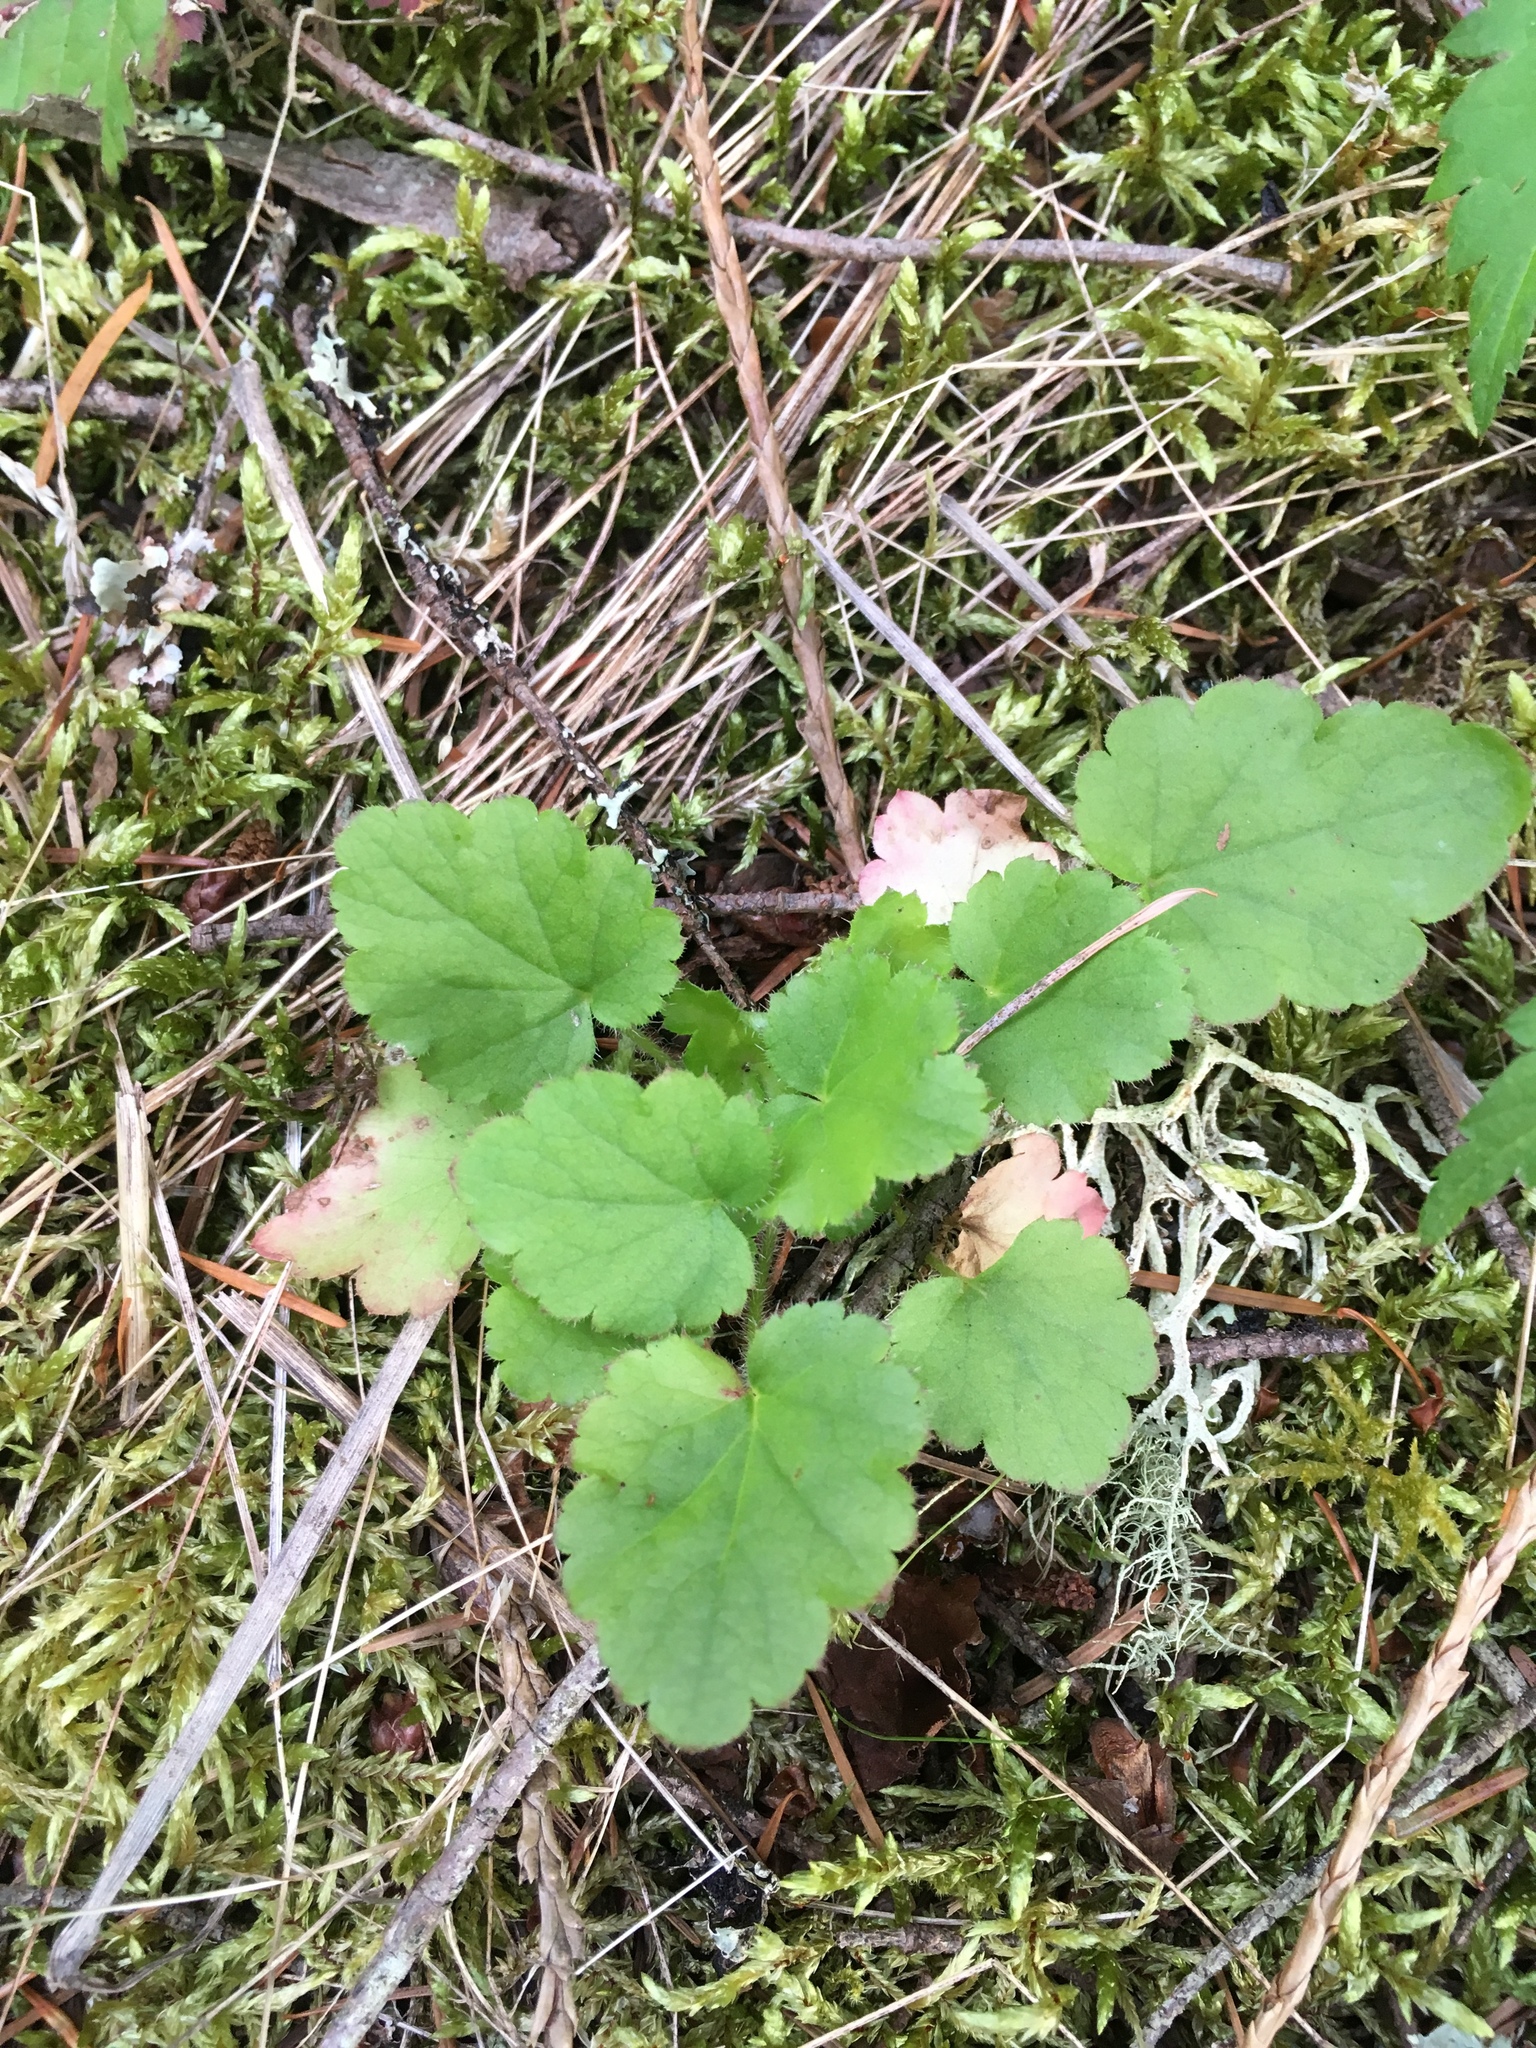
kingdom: Plantae
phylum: Tracheophyta
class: Magnoliopsida
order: Saxifragales
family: Saxifragaceae
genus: Heuchera
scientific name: Heuchera micrantha
